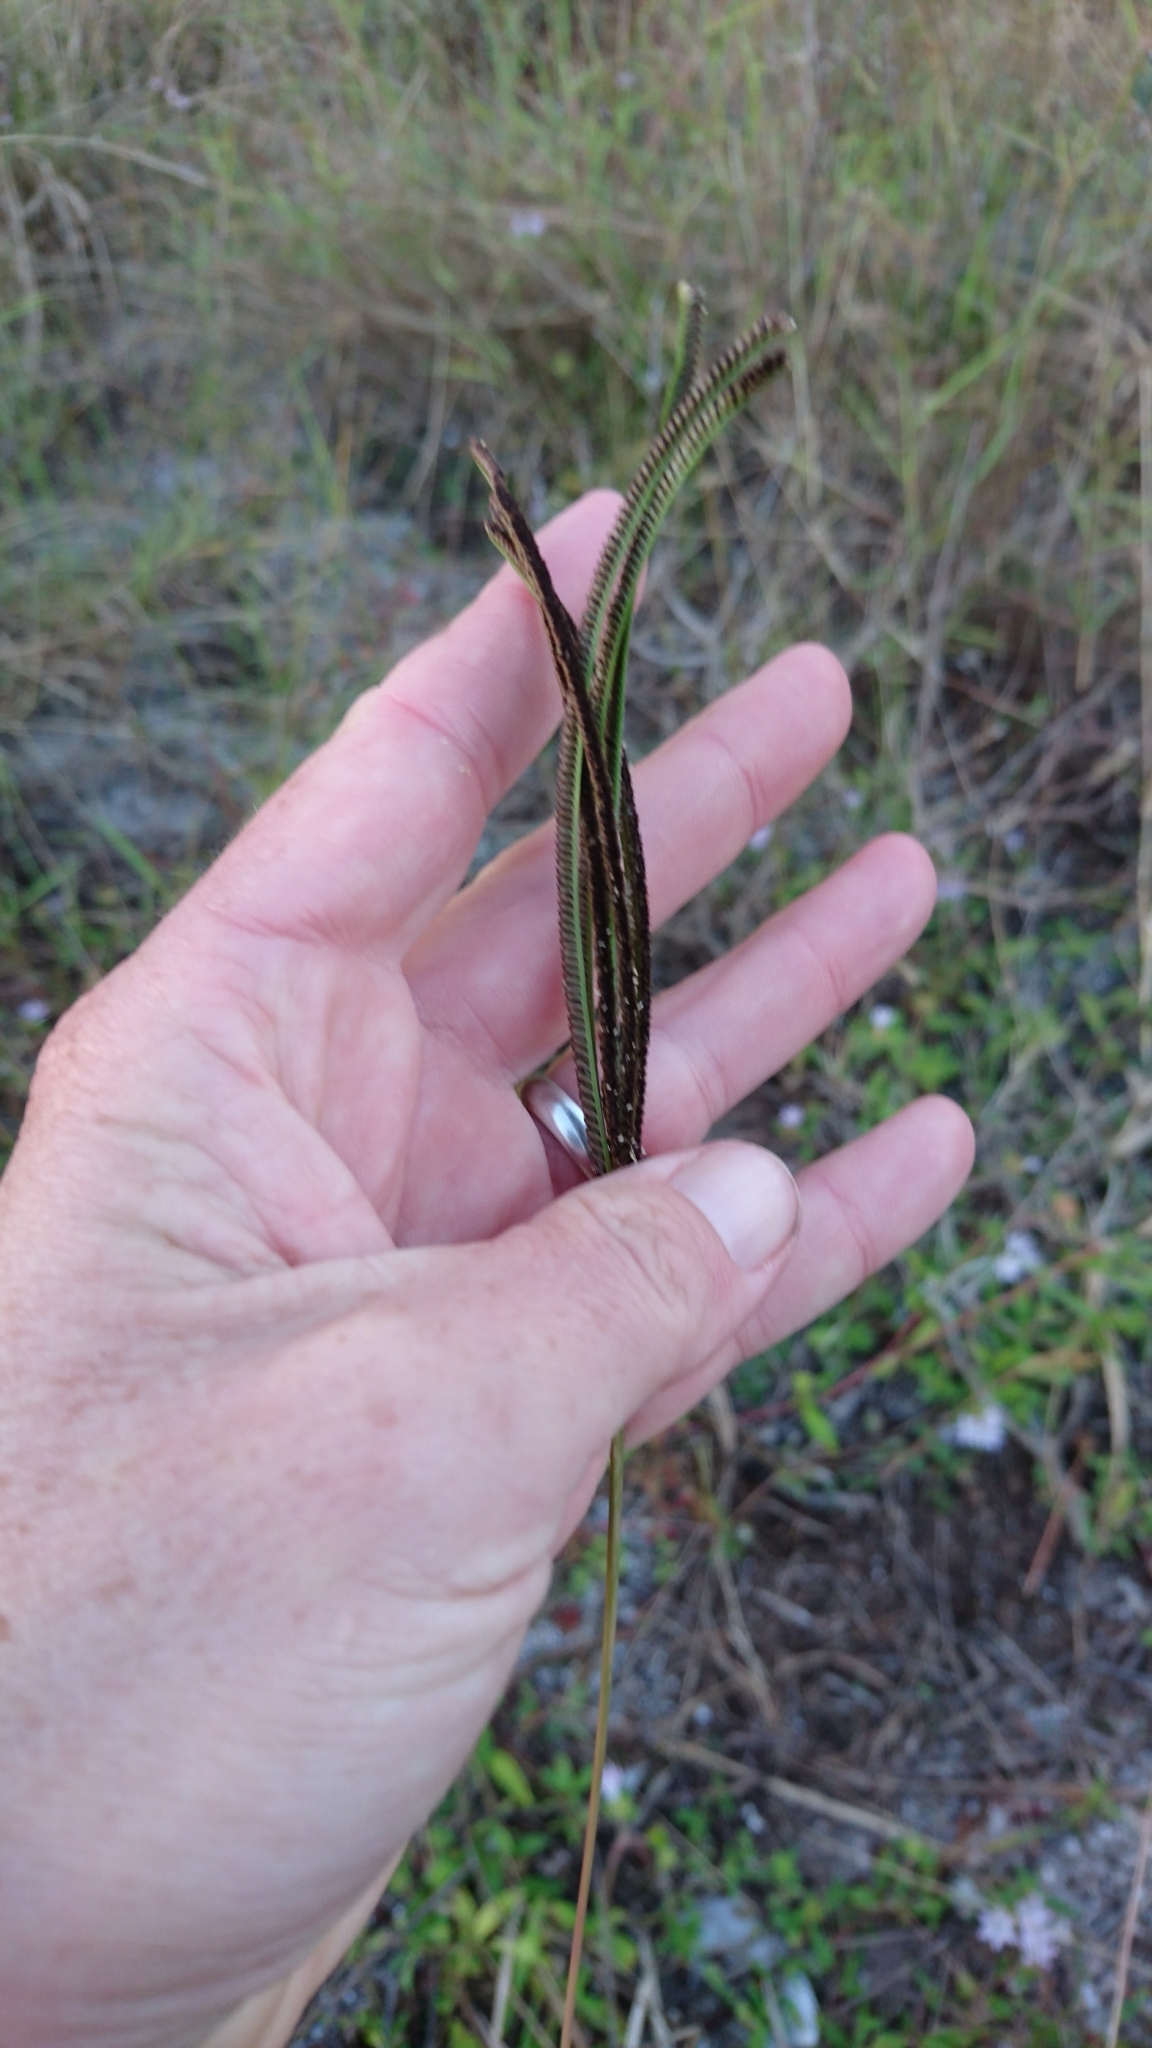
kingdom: Plantae
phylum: Tracheophyta
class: Liliopsida
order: Poales
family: Poaceae
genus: Eustachys
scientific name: Eustachys petraea
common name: Pinewoods fingergrass
